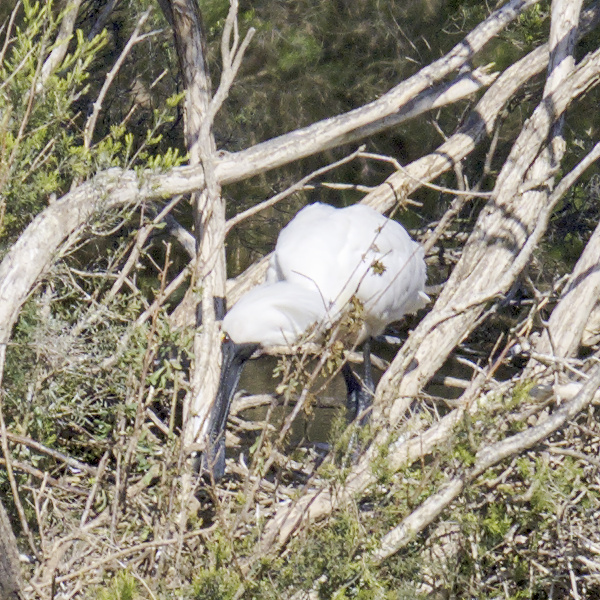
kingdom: Animalia
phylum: Chordata
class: Aves
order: Pelecaniformes
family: Threskiornithidae
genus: Platalea
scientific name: Platalea regia
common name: Royal spoonbill
